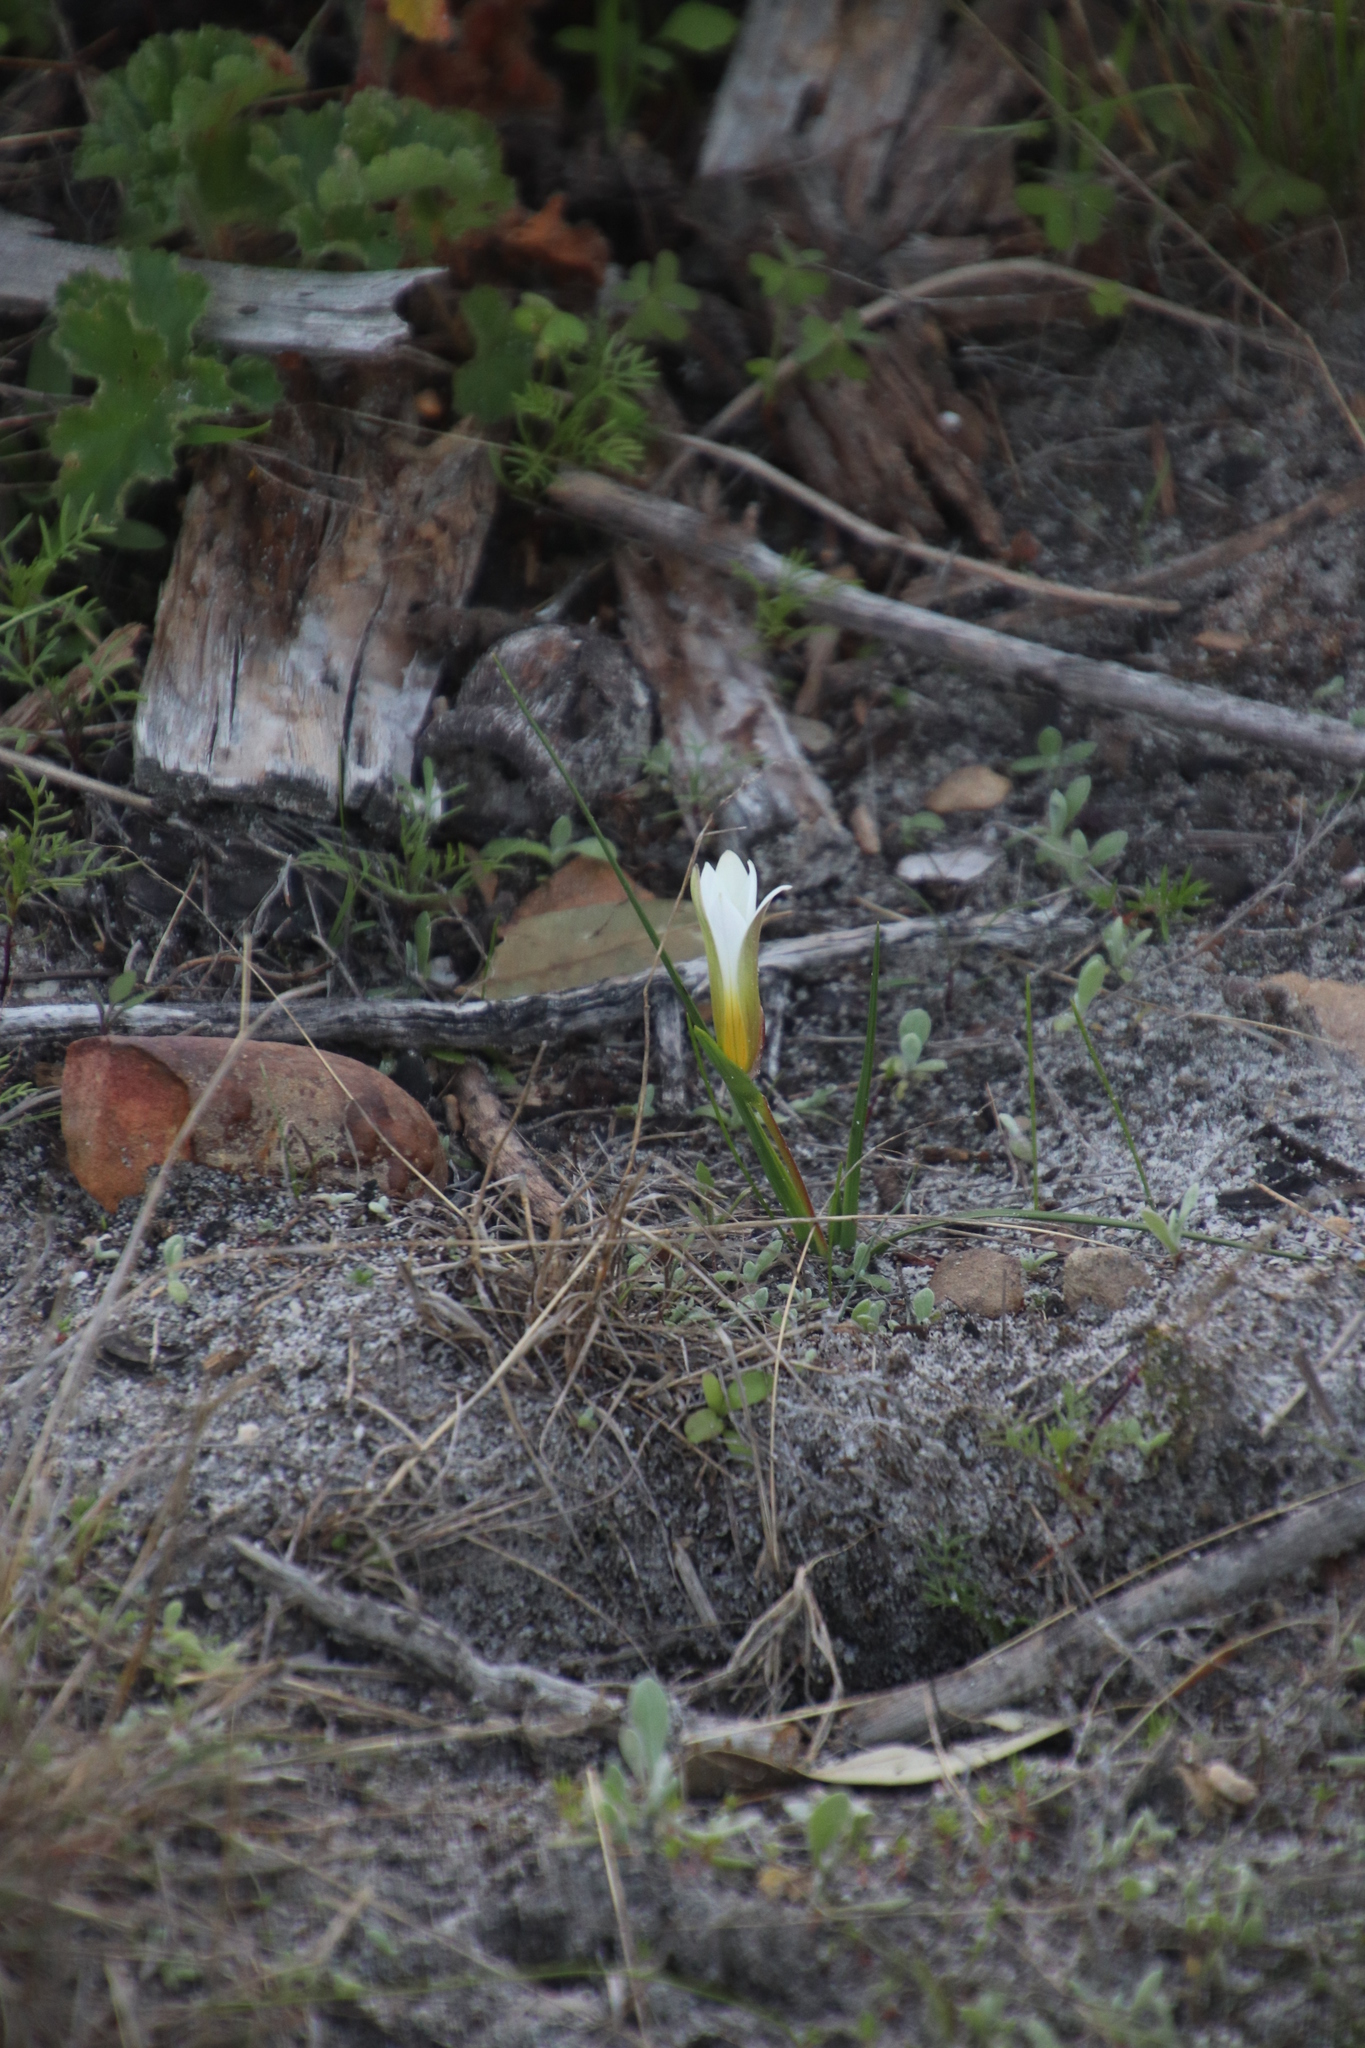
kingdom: Plantae
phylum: Tracheophyta
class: Liliopsida
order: Asparagales
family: Iridaceae
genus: Romulea
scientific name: Romulea flava
